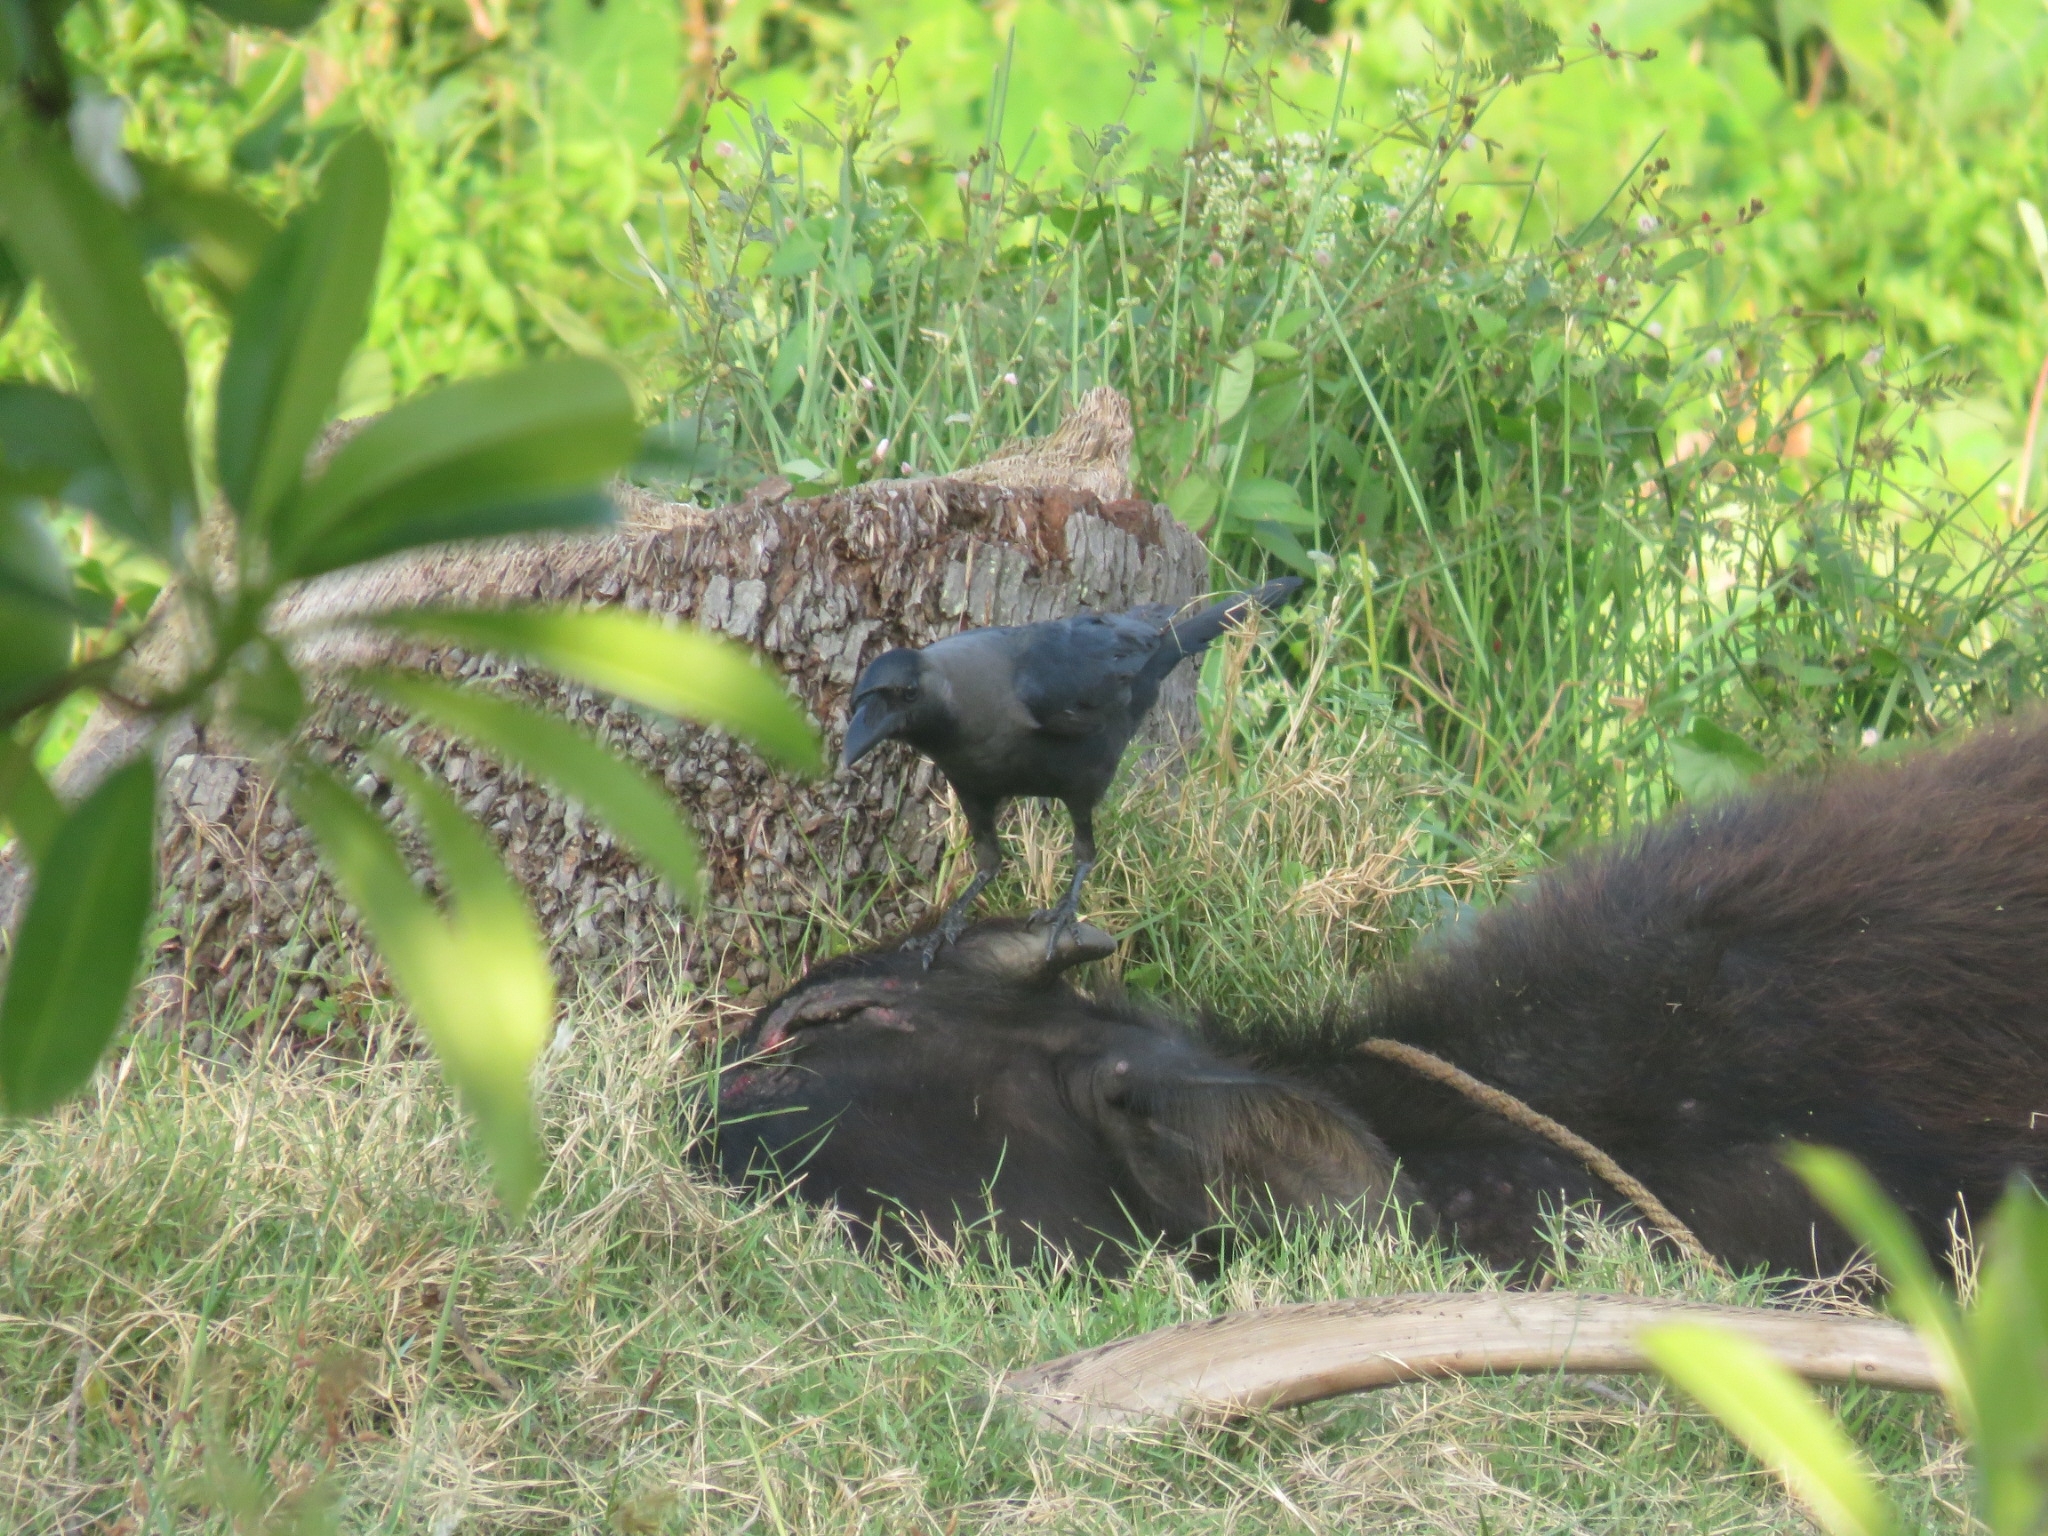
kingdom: Animalia
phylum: Chordata
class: Aves
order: Passeriformes
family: Corvidae
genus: Corvus
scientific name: Corvus splendens
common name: House crow
